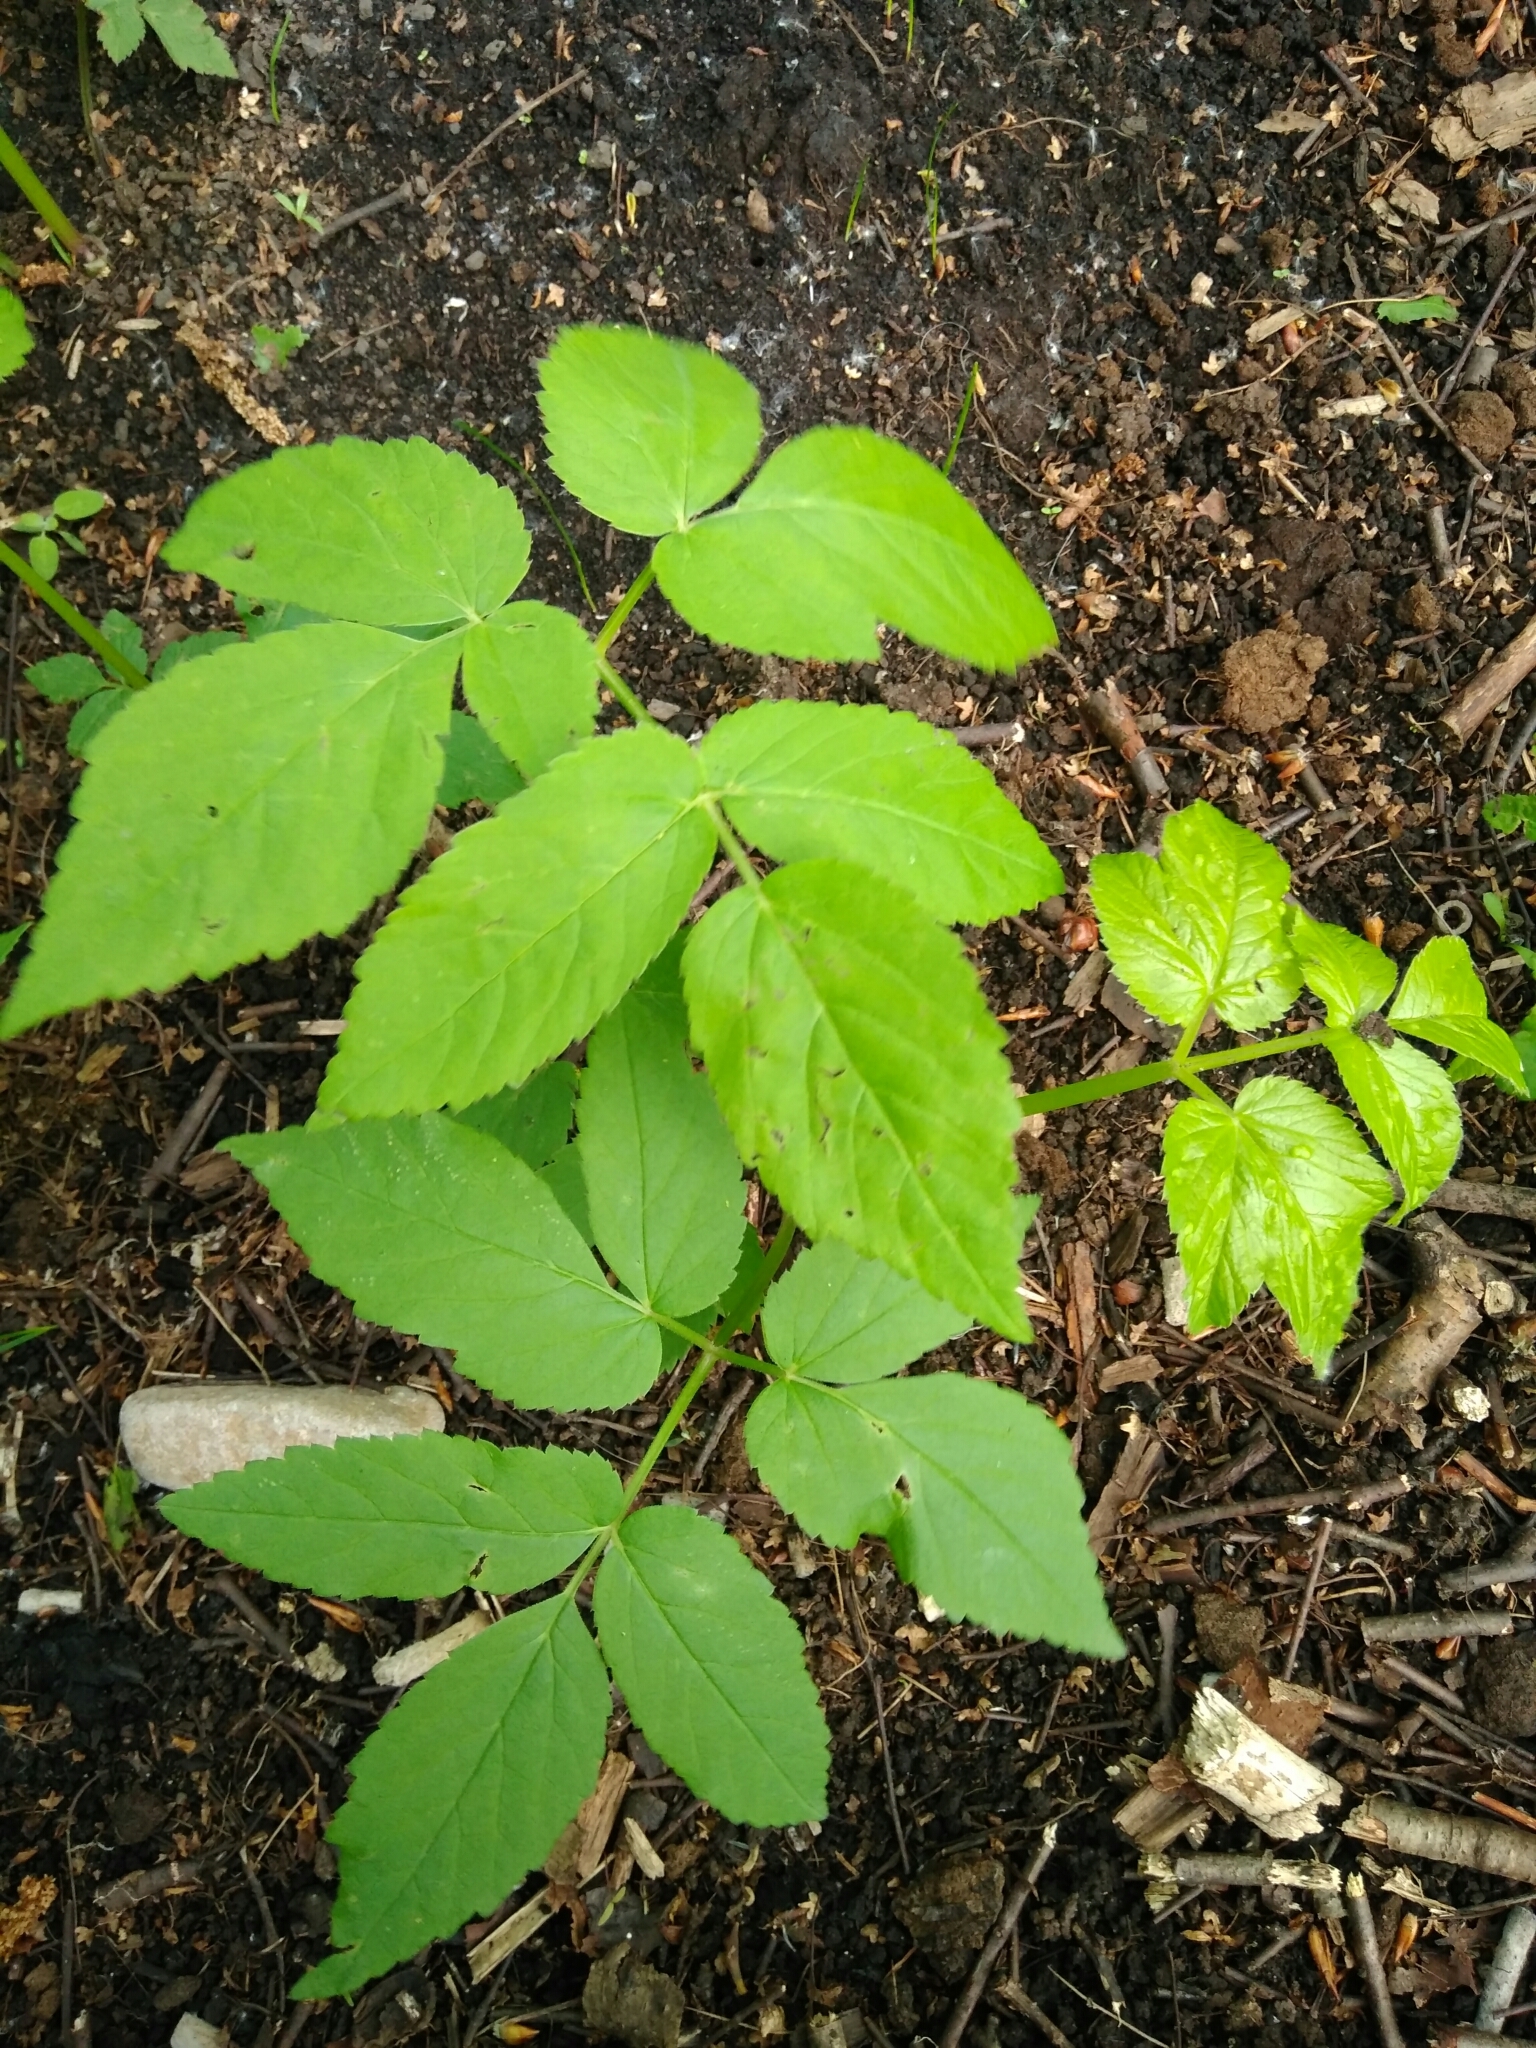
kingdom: Plantae
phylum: Tracheophyta
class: Magnoliopsida
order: Apiales
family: Apiaceae
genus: Aegopodium
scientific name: Aegopodium podagraria
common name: Ground-elder
